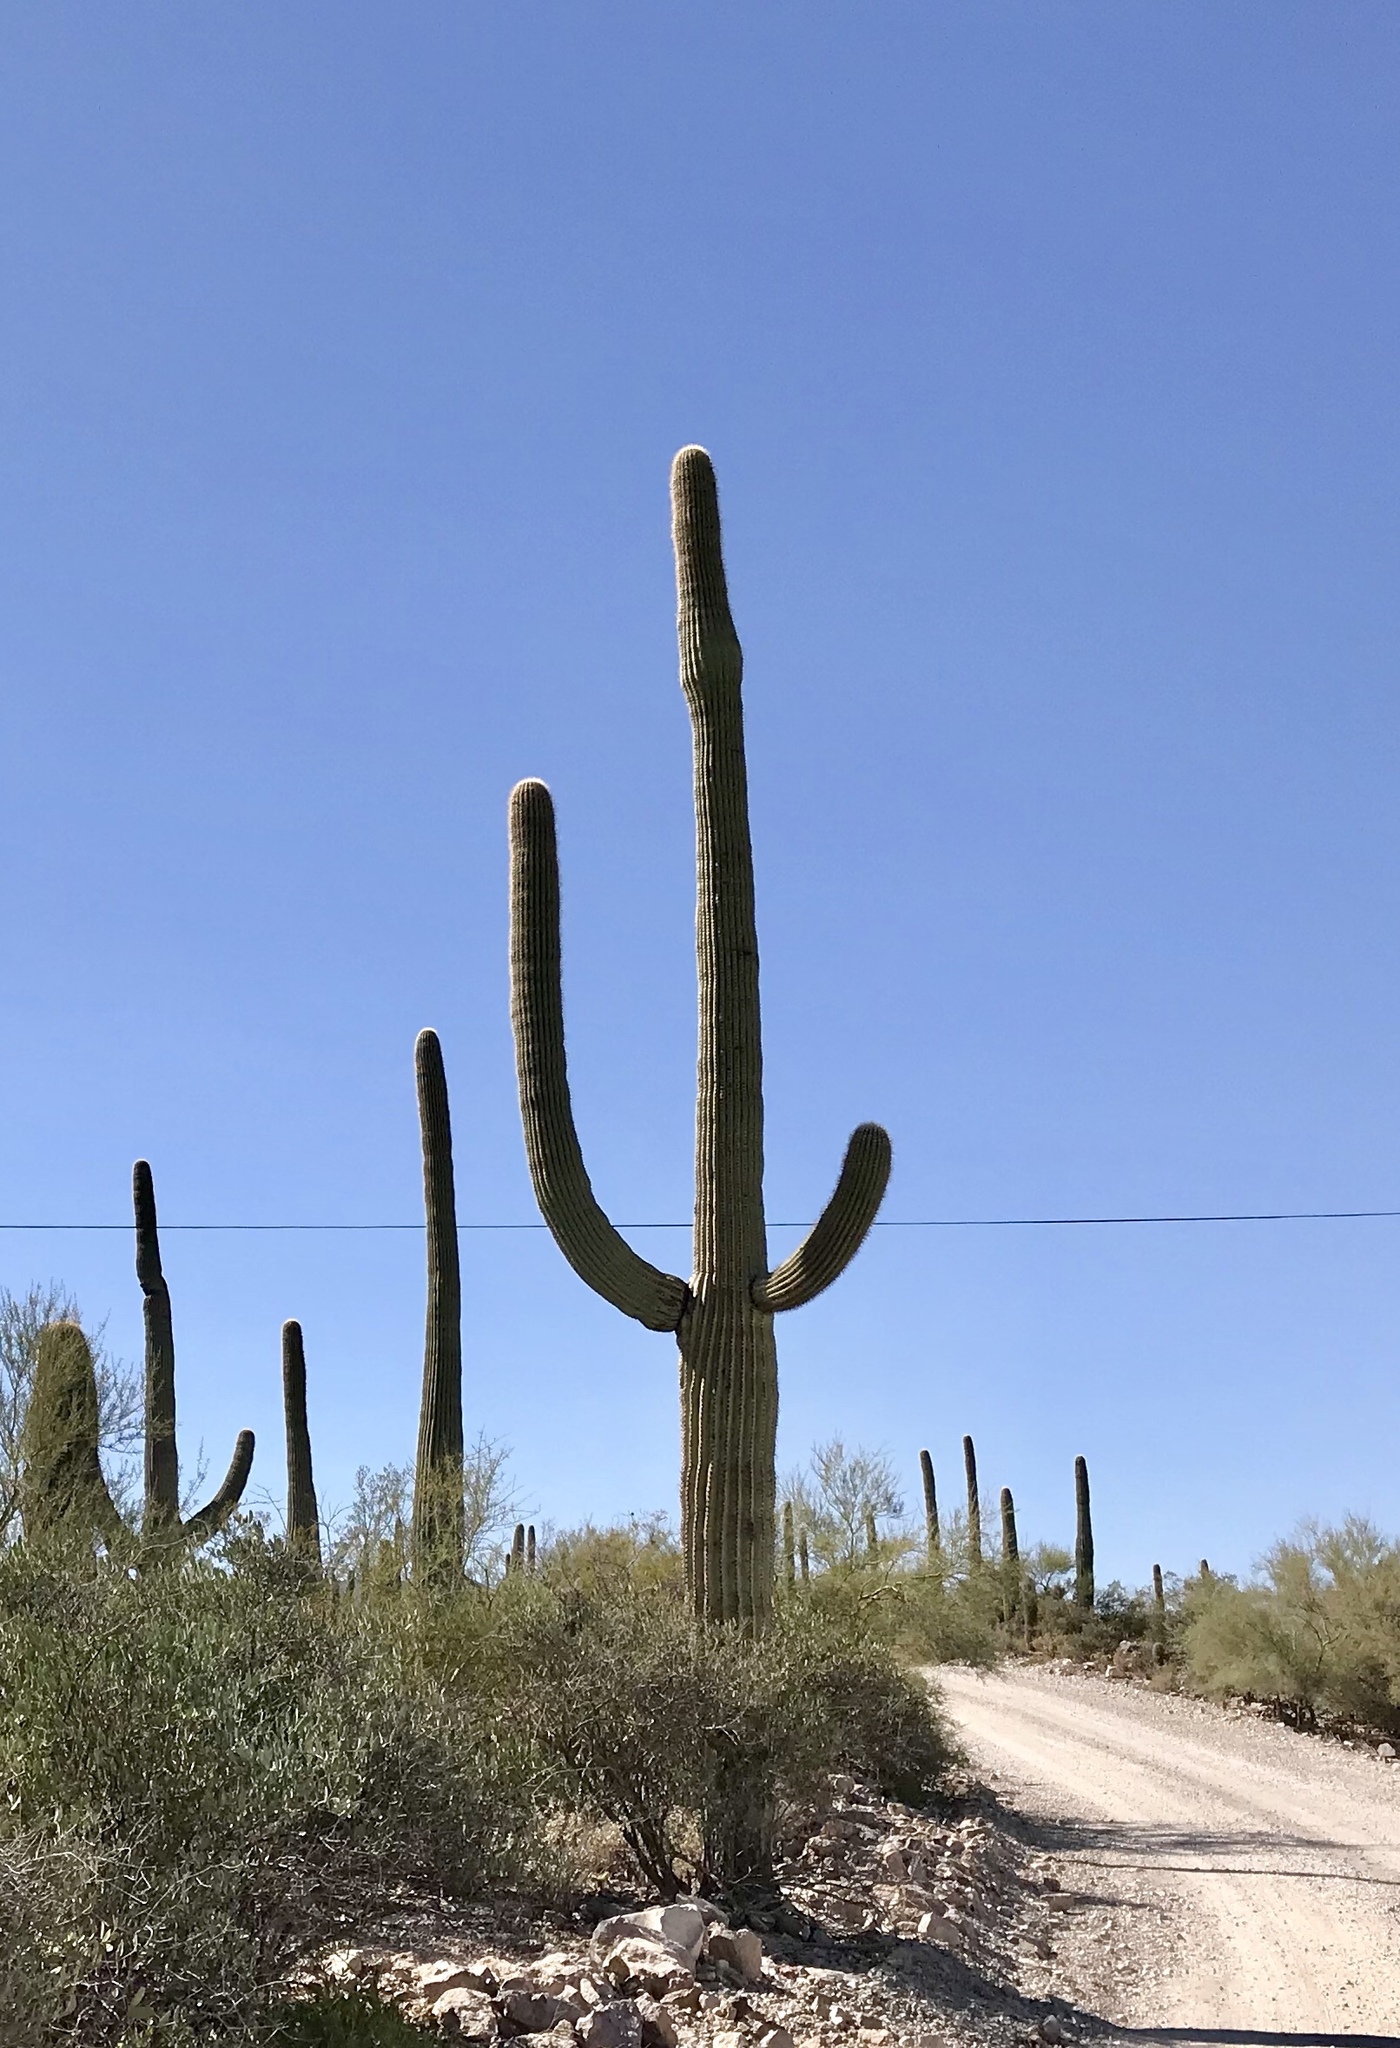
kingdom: Plantae
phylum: Tracheophyta
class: Magnoliopsida
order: Caryophyllales
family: Cactaceae
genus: Carnegiea
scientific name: Carnegiea gigantea
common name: Saguaro
